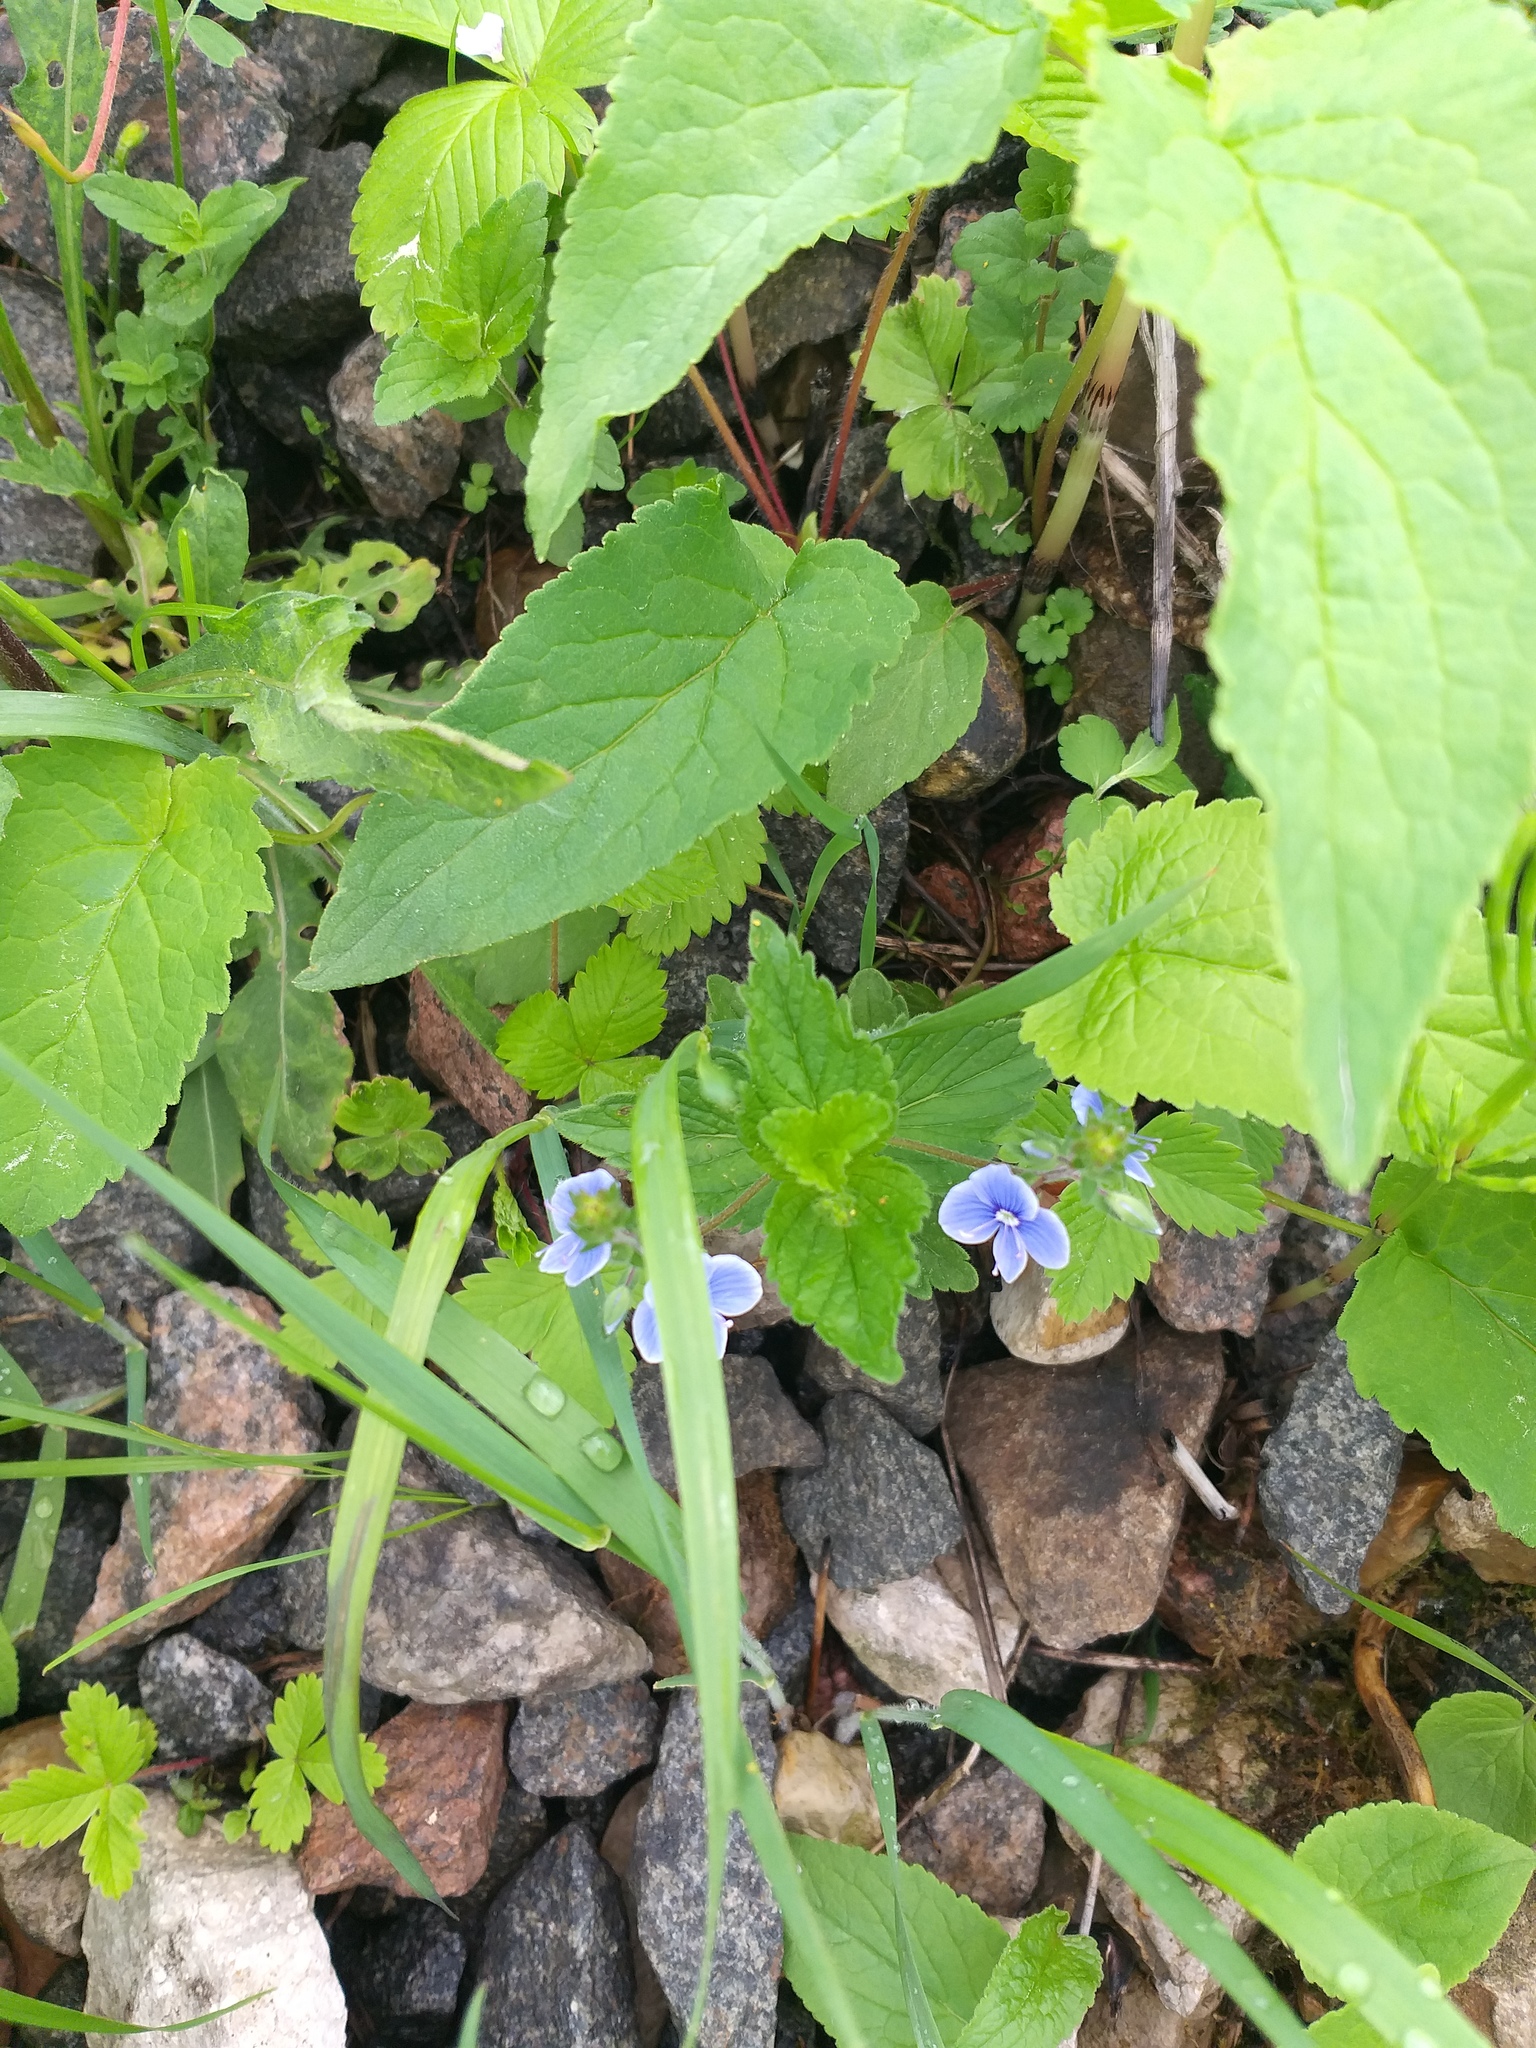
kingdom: Plantae
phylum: Tracheophyta
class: Magnoliopsida
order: Lamiales
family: Plantaginaceae
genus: Veronica
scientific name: Veronica chamaedrys
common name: Germander speedwell
